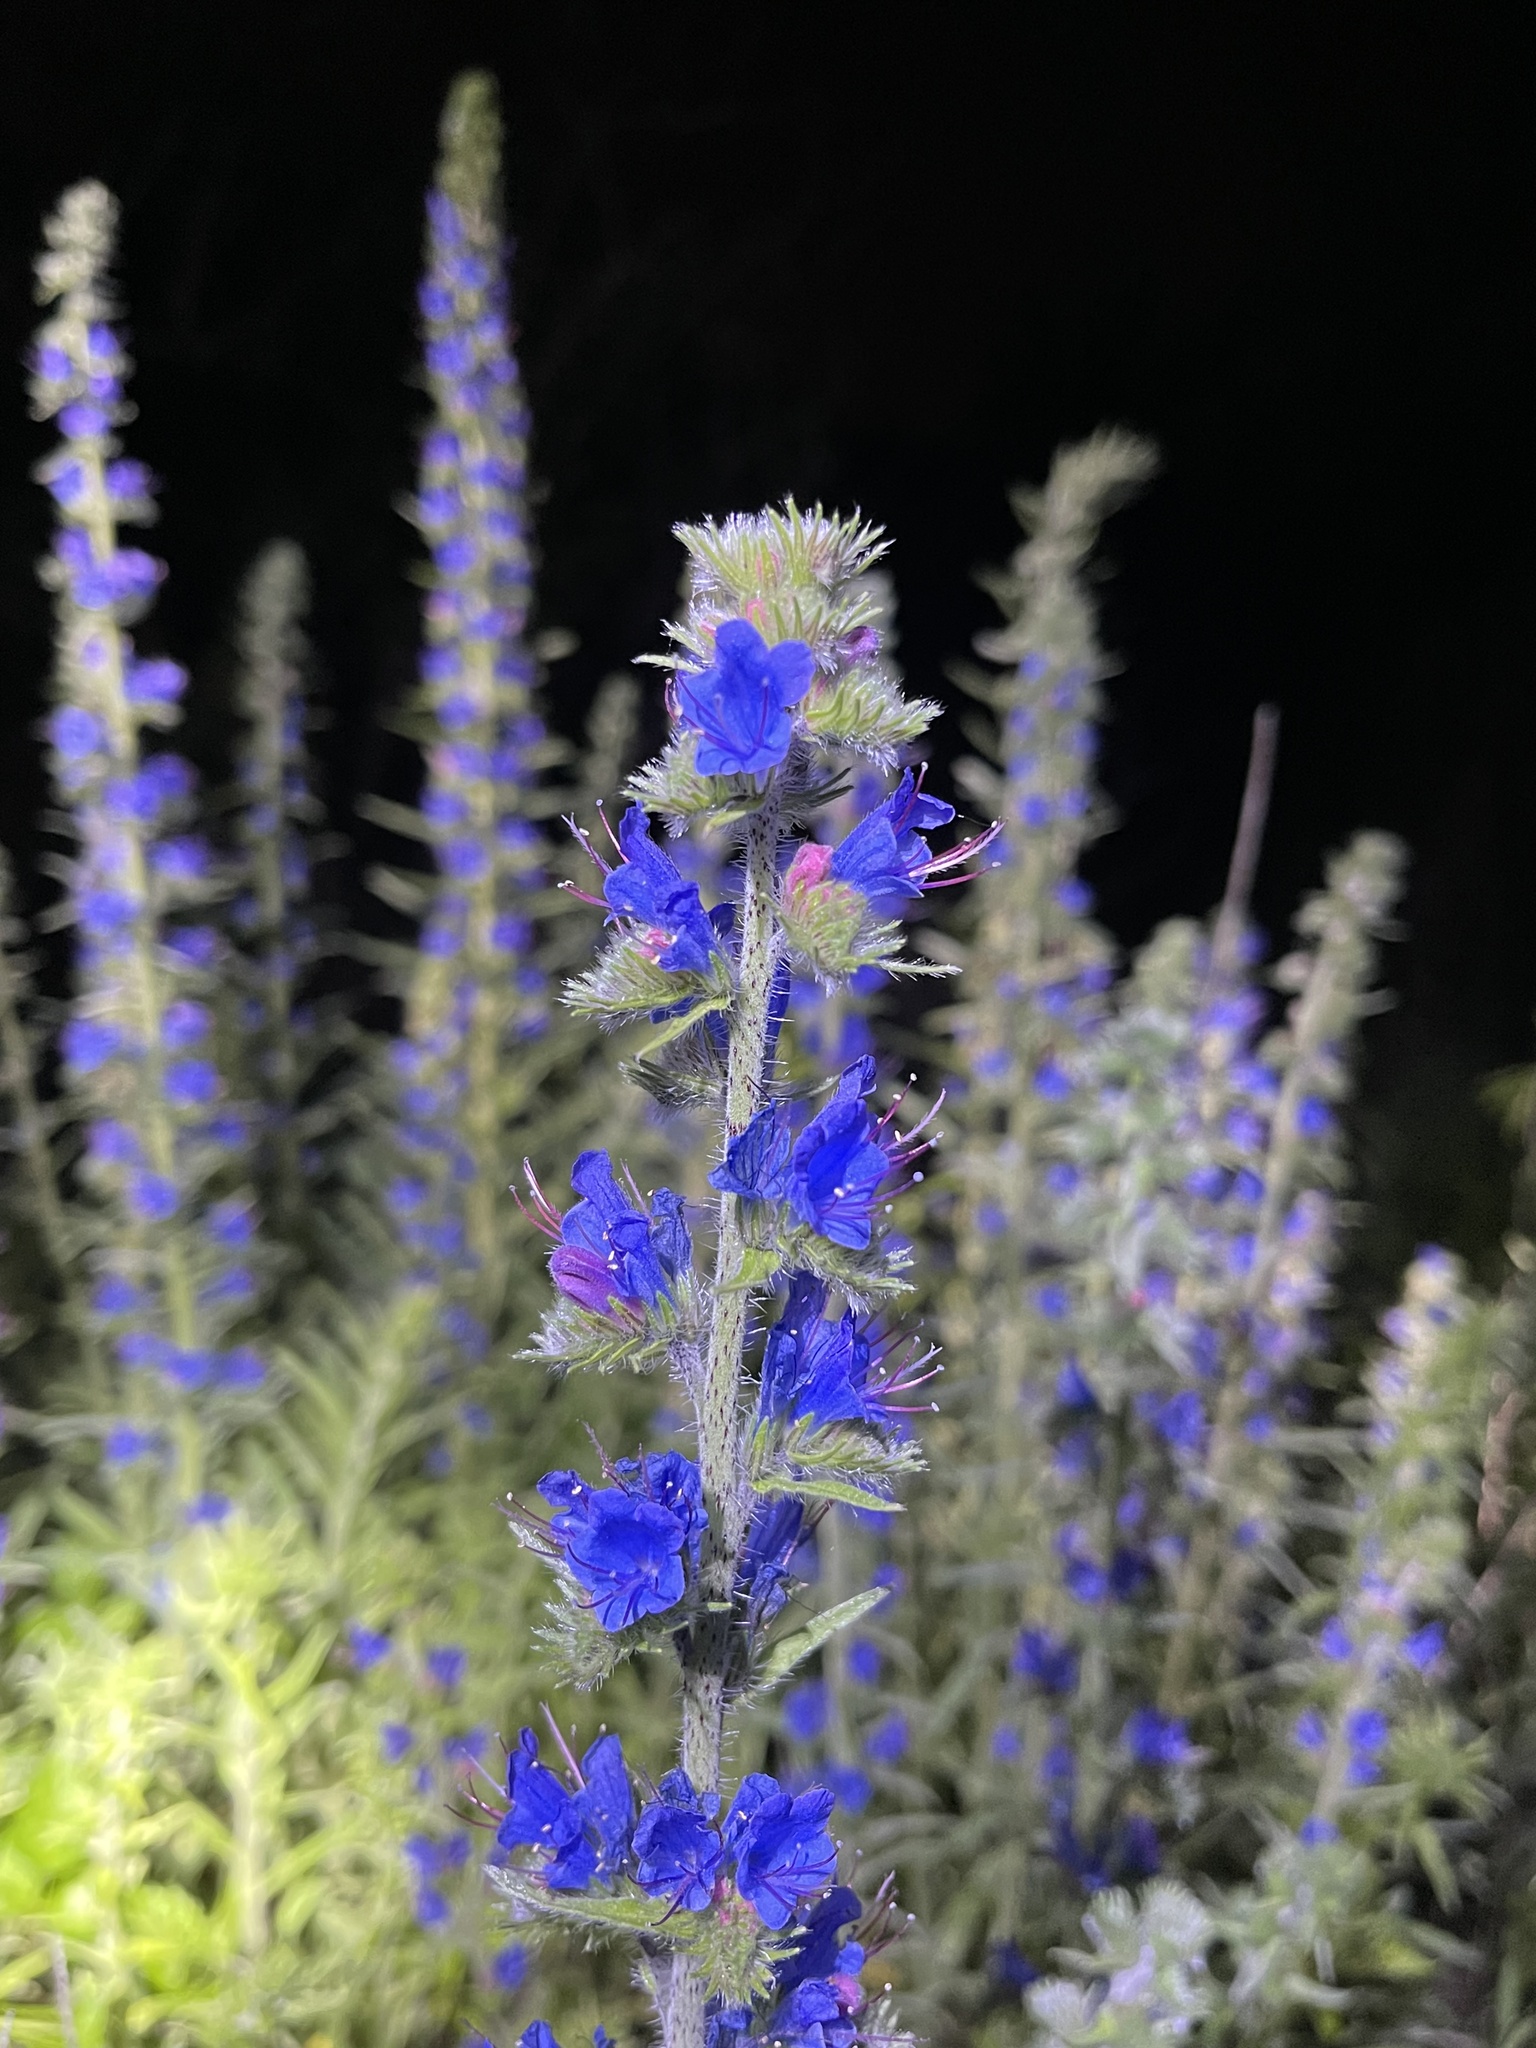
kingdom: Plantae
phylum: Tracheophyta
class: Magnoliopsida
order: Boraginales
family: Boraginaceae
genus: Echium
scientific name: Echium vulgare
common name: Common viper's bugloss
